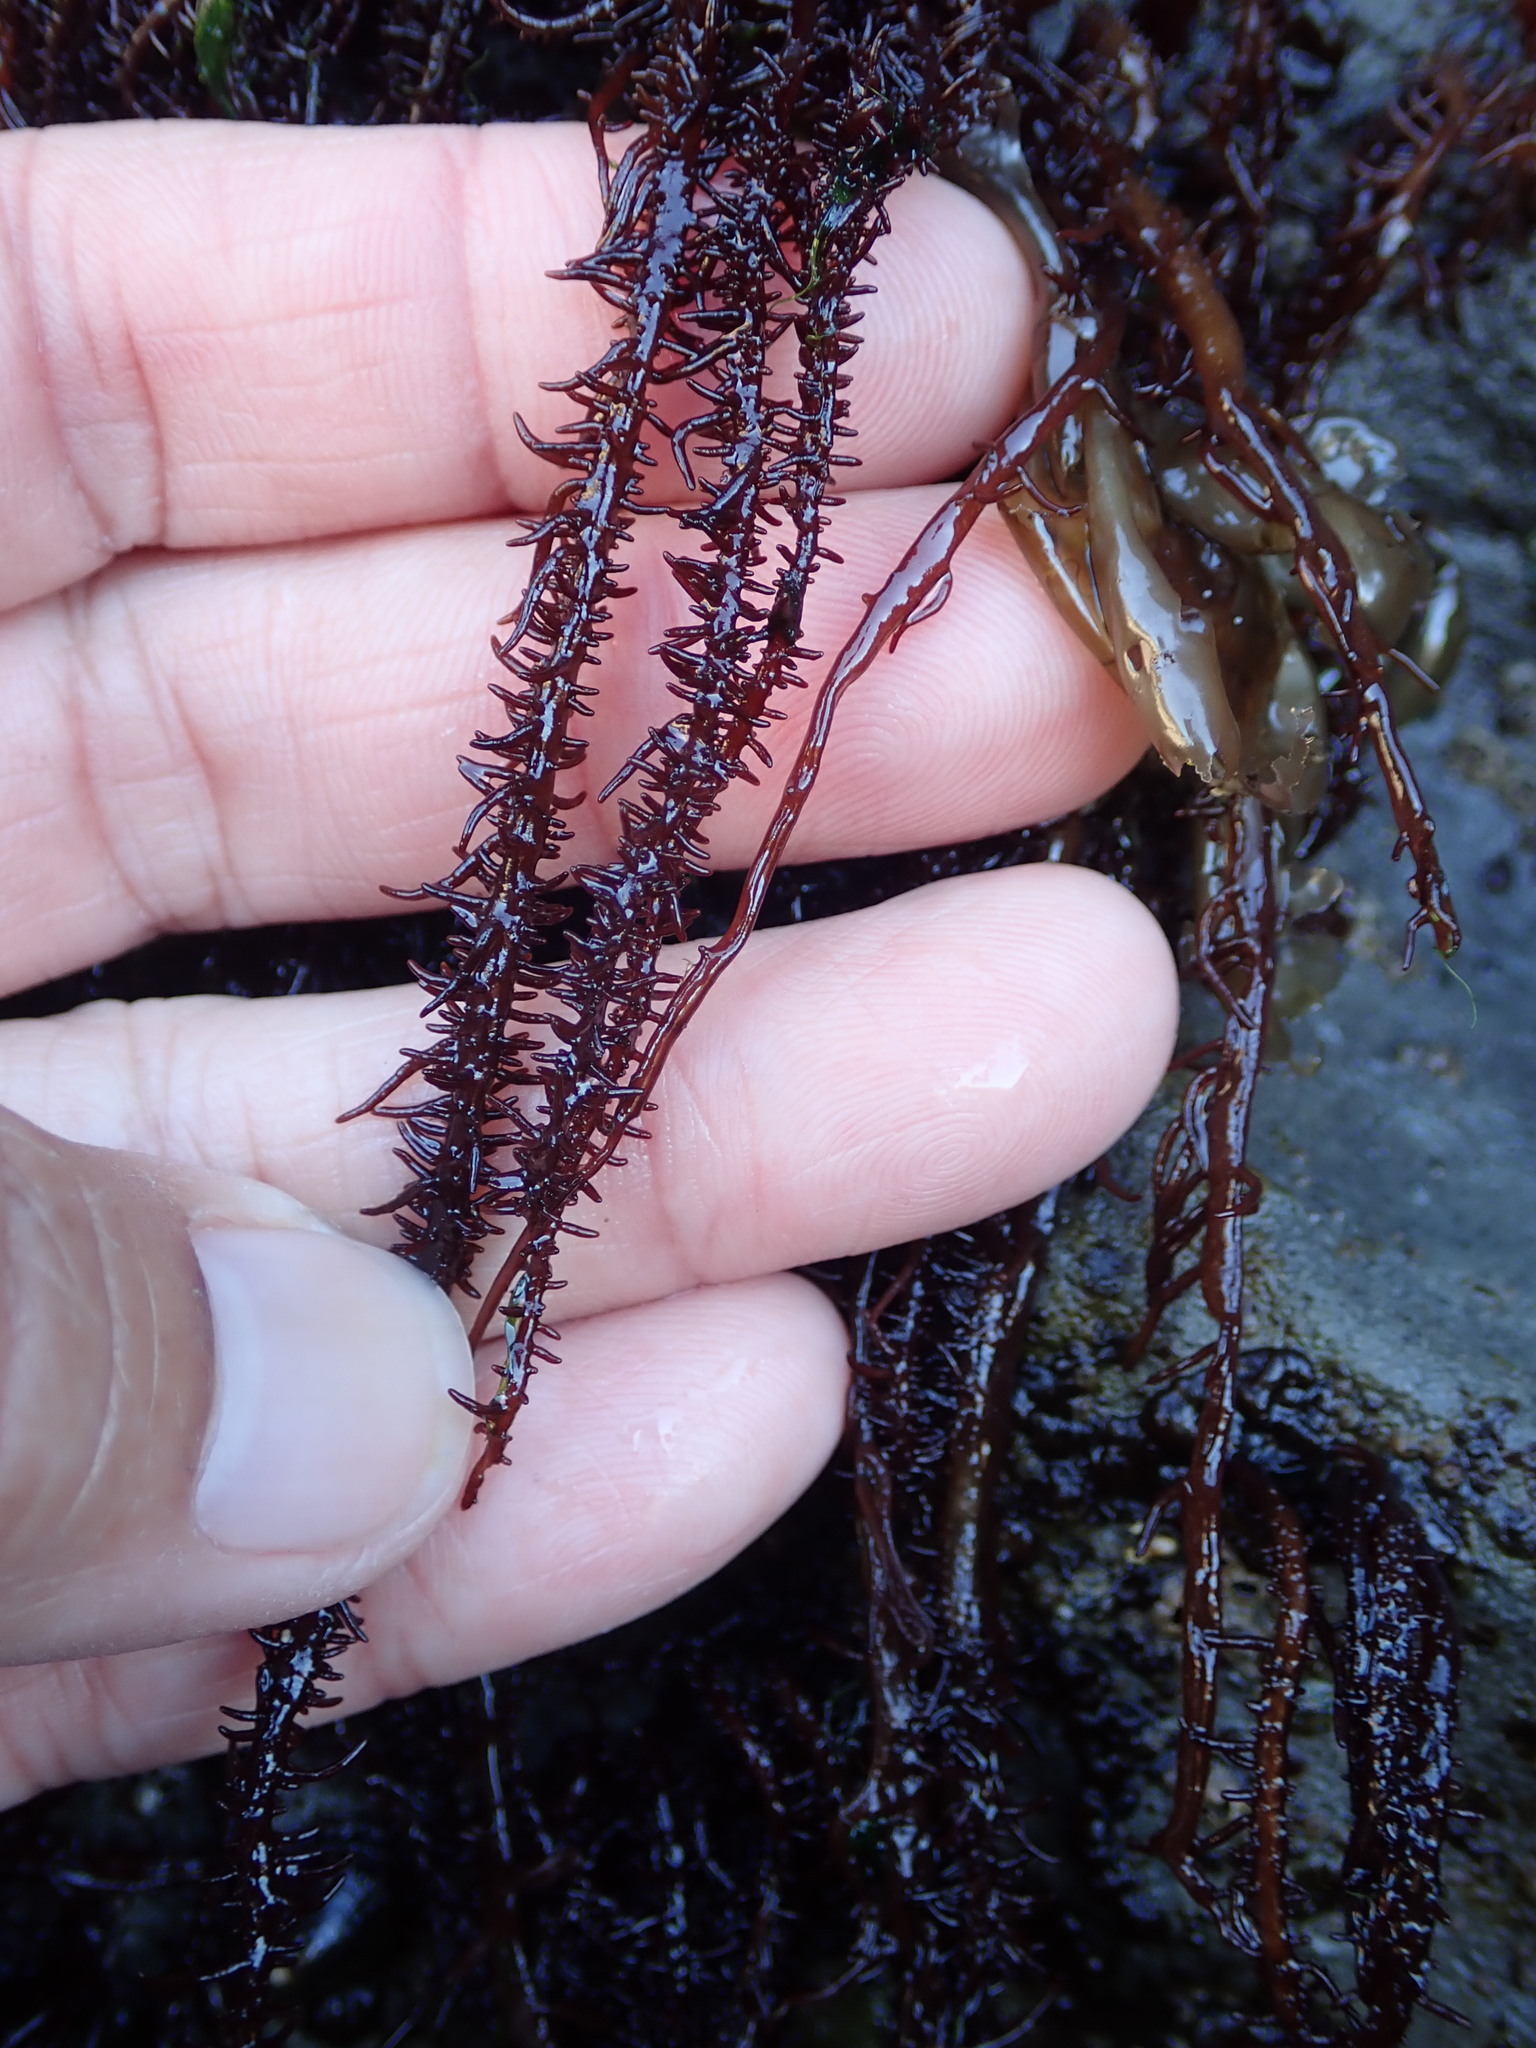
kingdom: Plantae
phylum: Rhodophyta
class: Florideophyceae
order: Nemaliales
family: Liagoraceae
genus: Cumagloia
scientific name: Cumagloia andersonii
